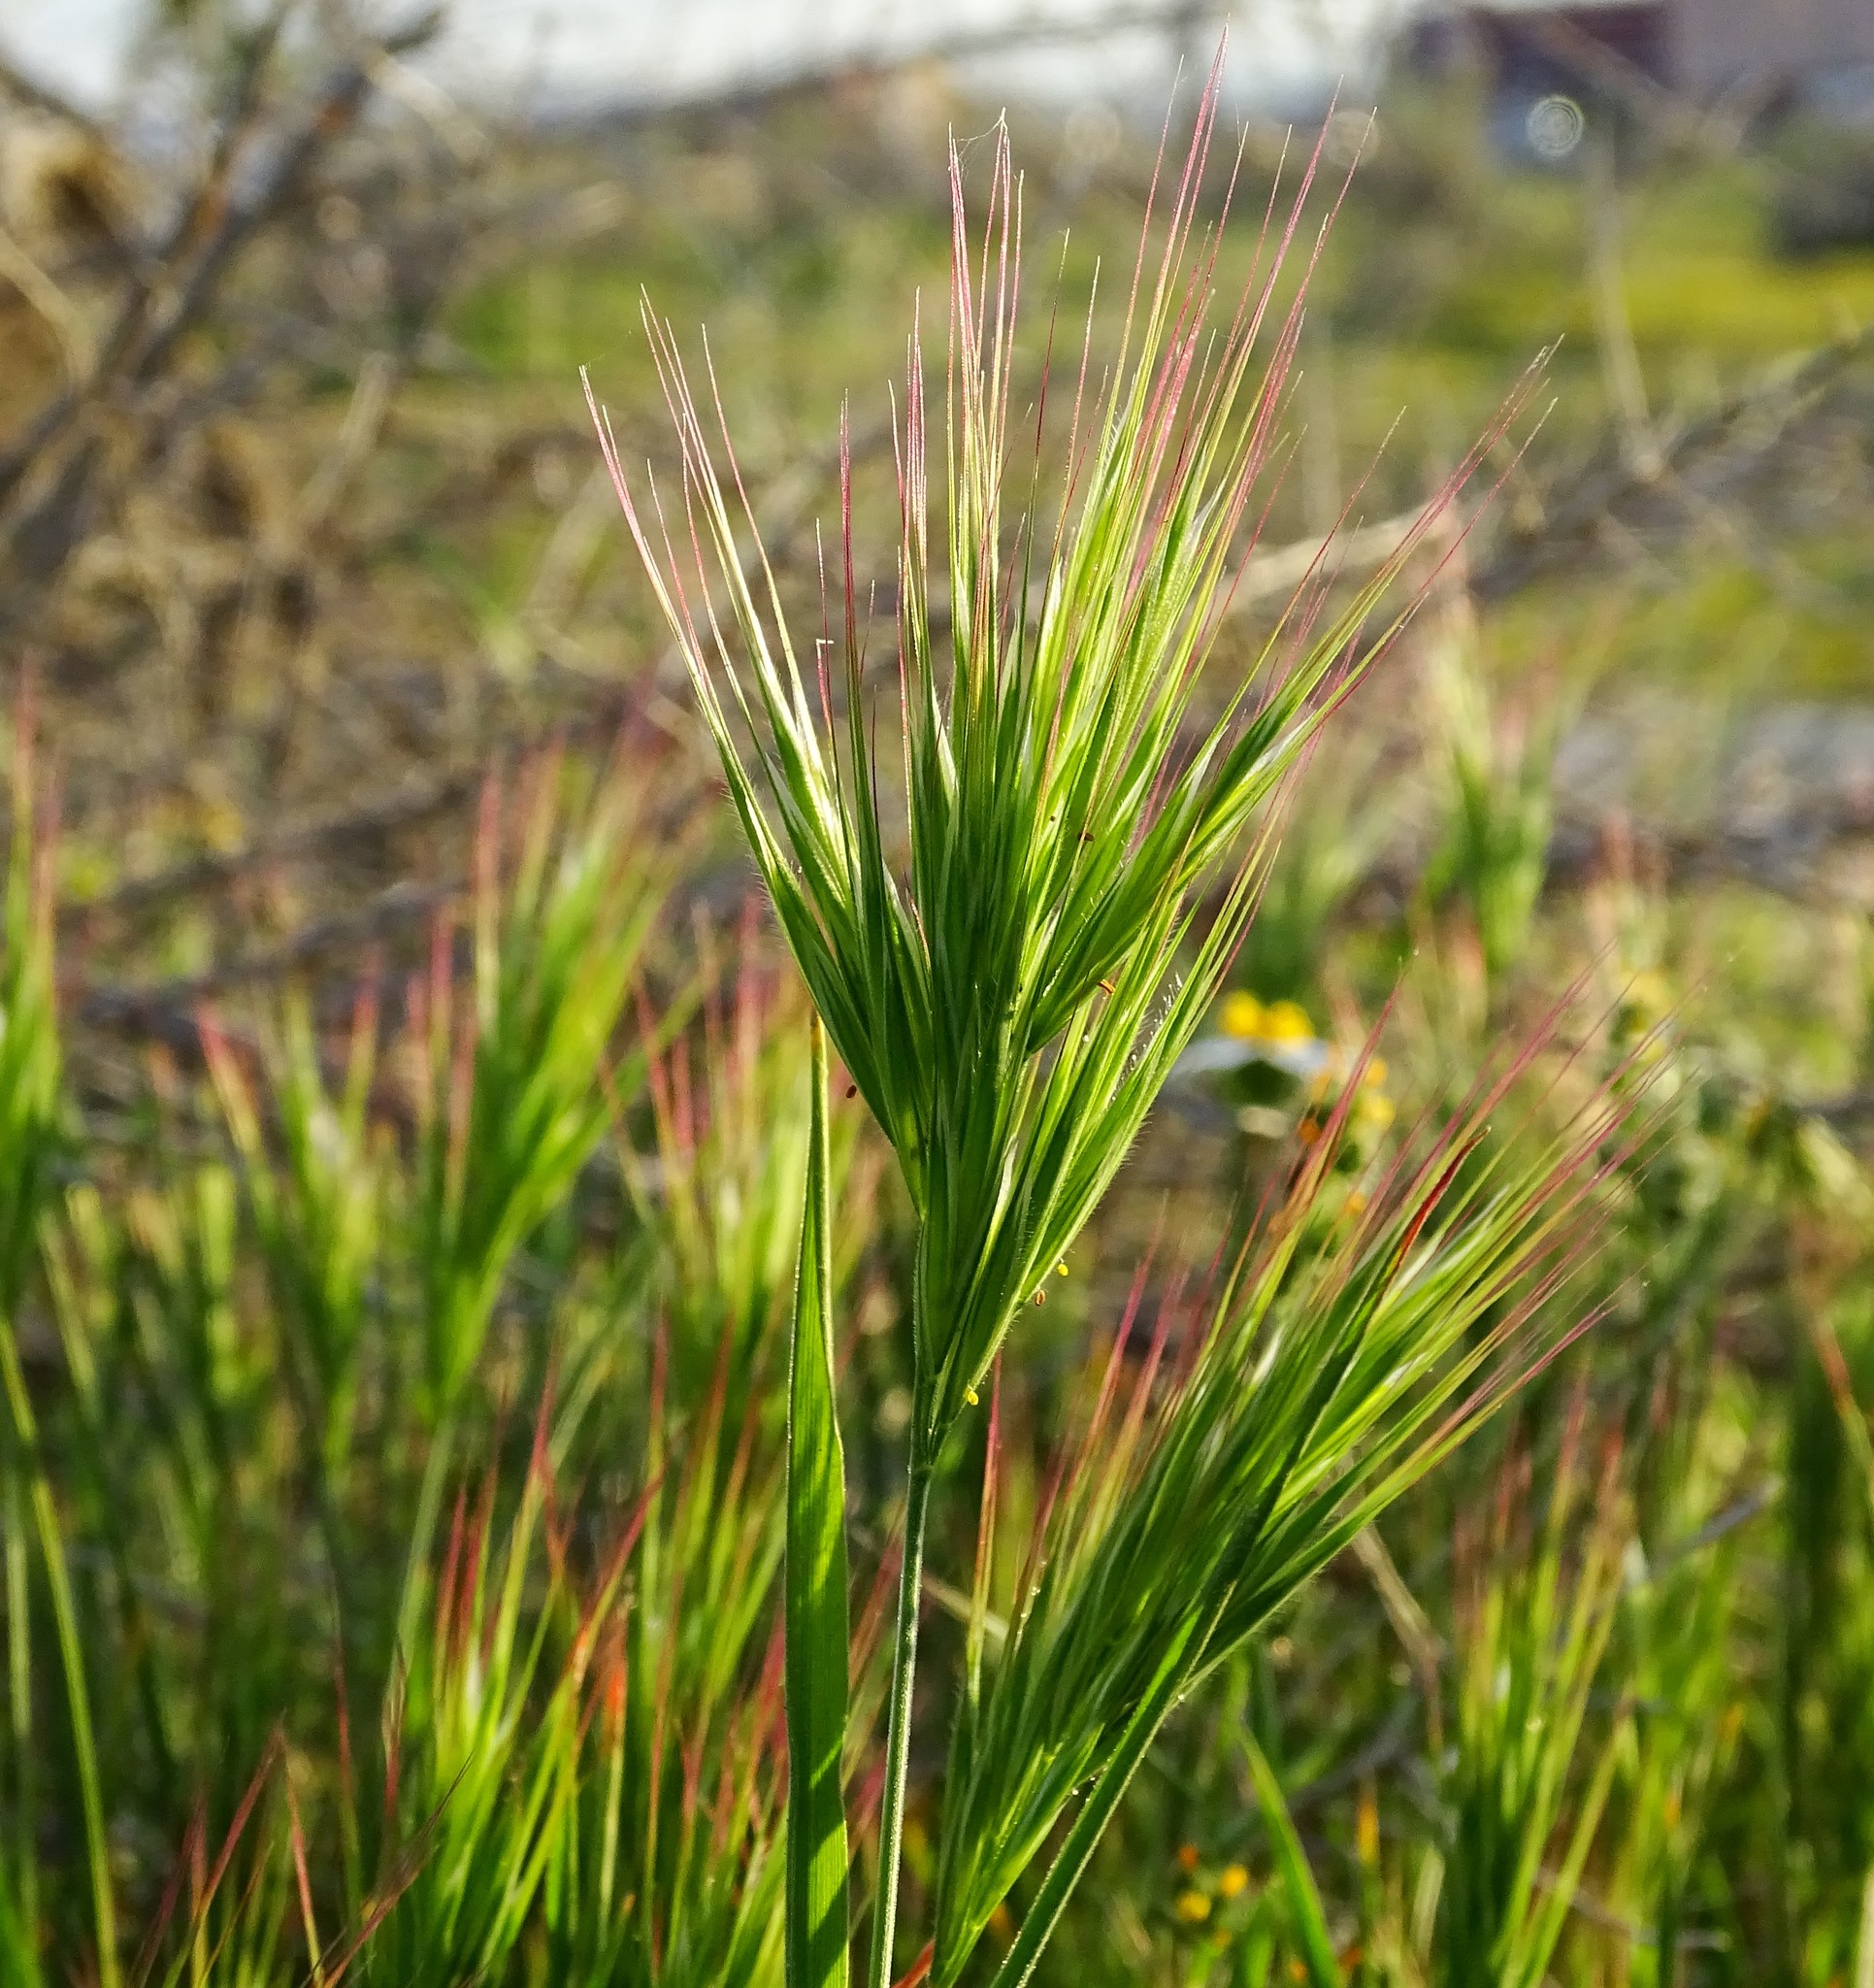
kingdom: Plantae
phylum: Tracheophyta
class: Liliopsida
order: Poales
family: Poaceae
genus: Bromus
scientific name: Bromus madritensis
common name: Compact brome
